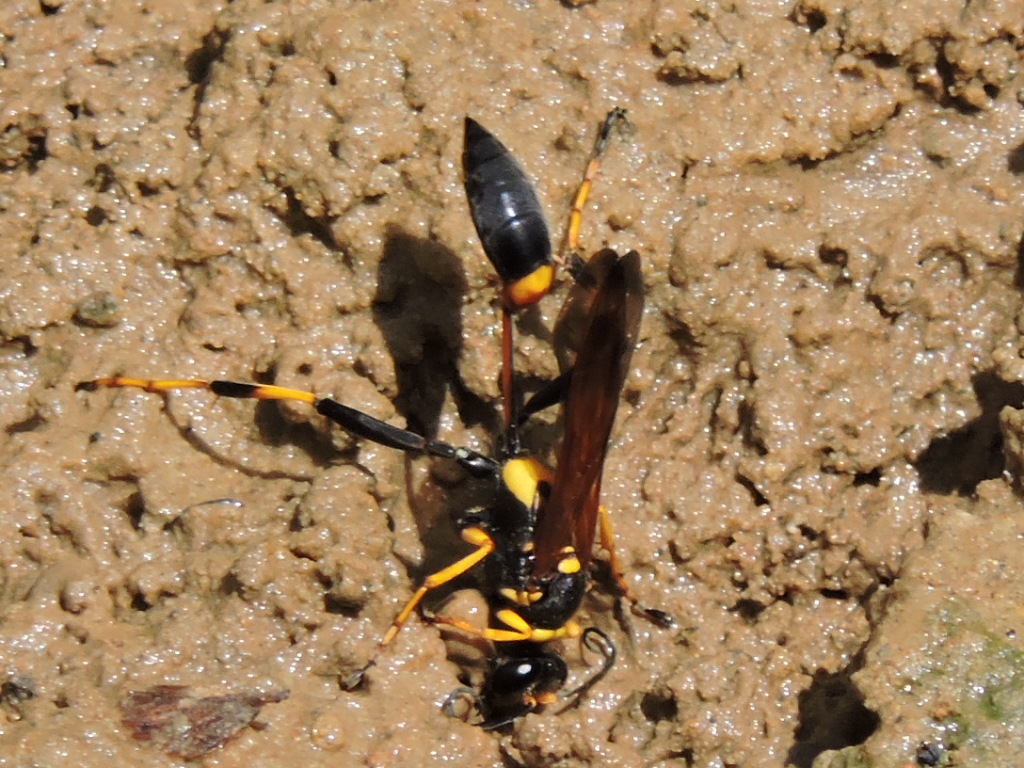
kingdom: Animalia
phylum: Arthropoda
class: Insecta
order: Hymenoptera
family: Sphecidae
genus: Sceliphron
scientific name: Sceliphron caementarium
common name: Mud dauber
